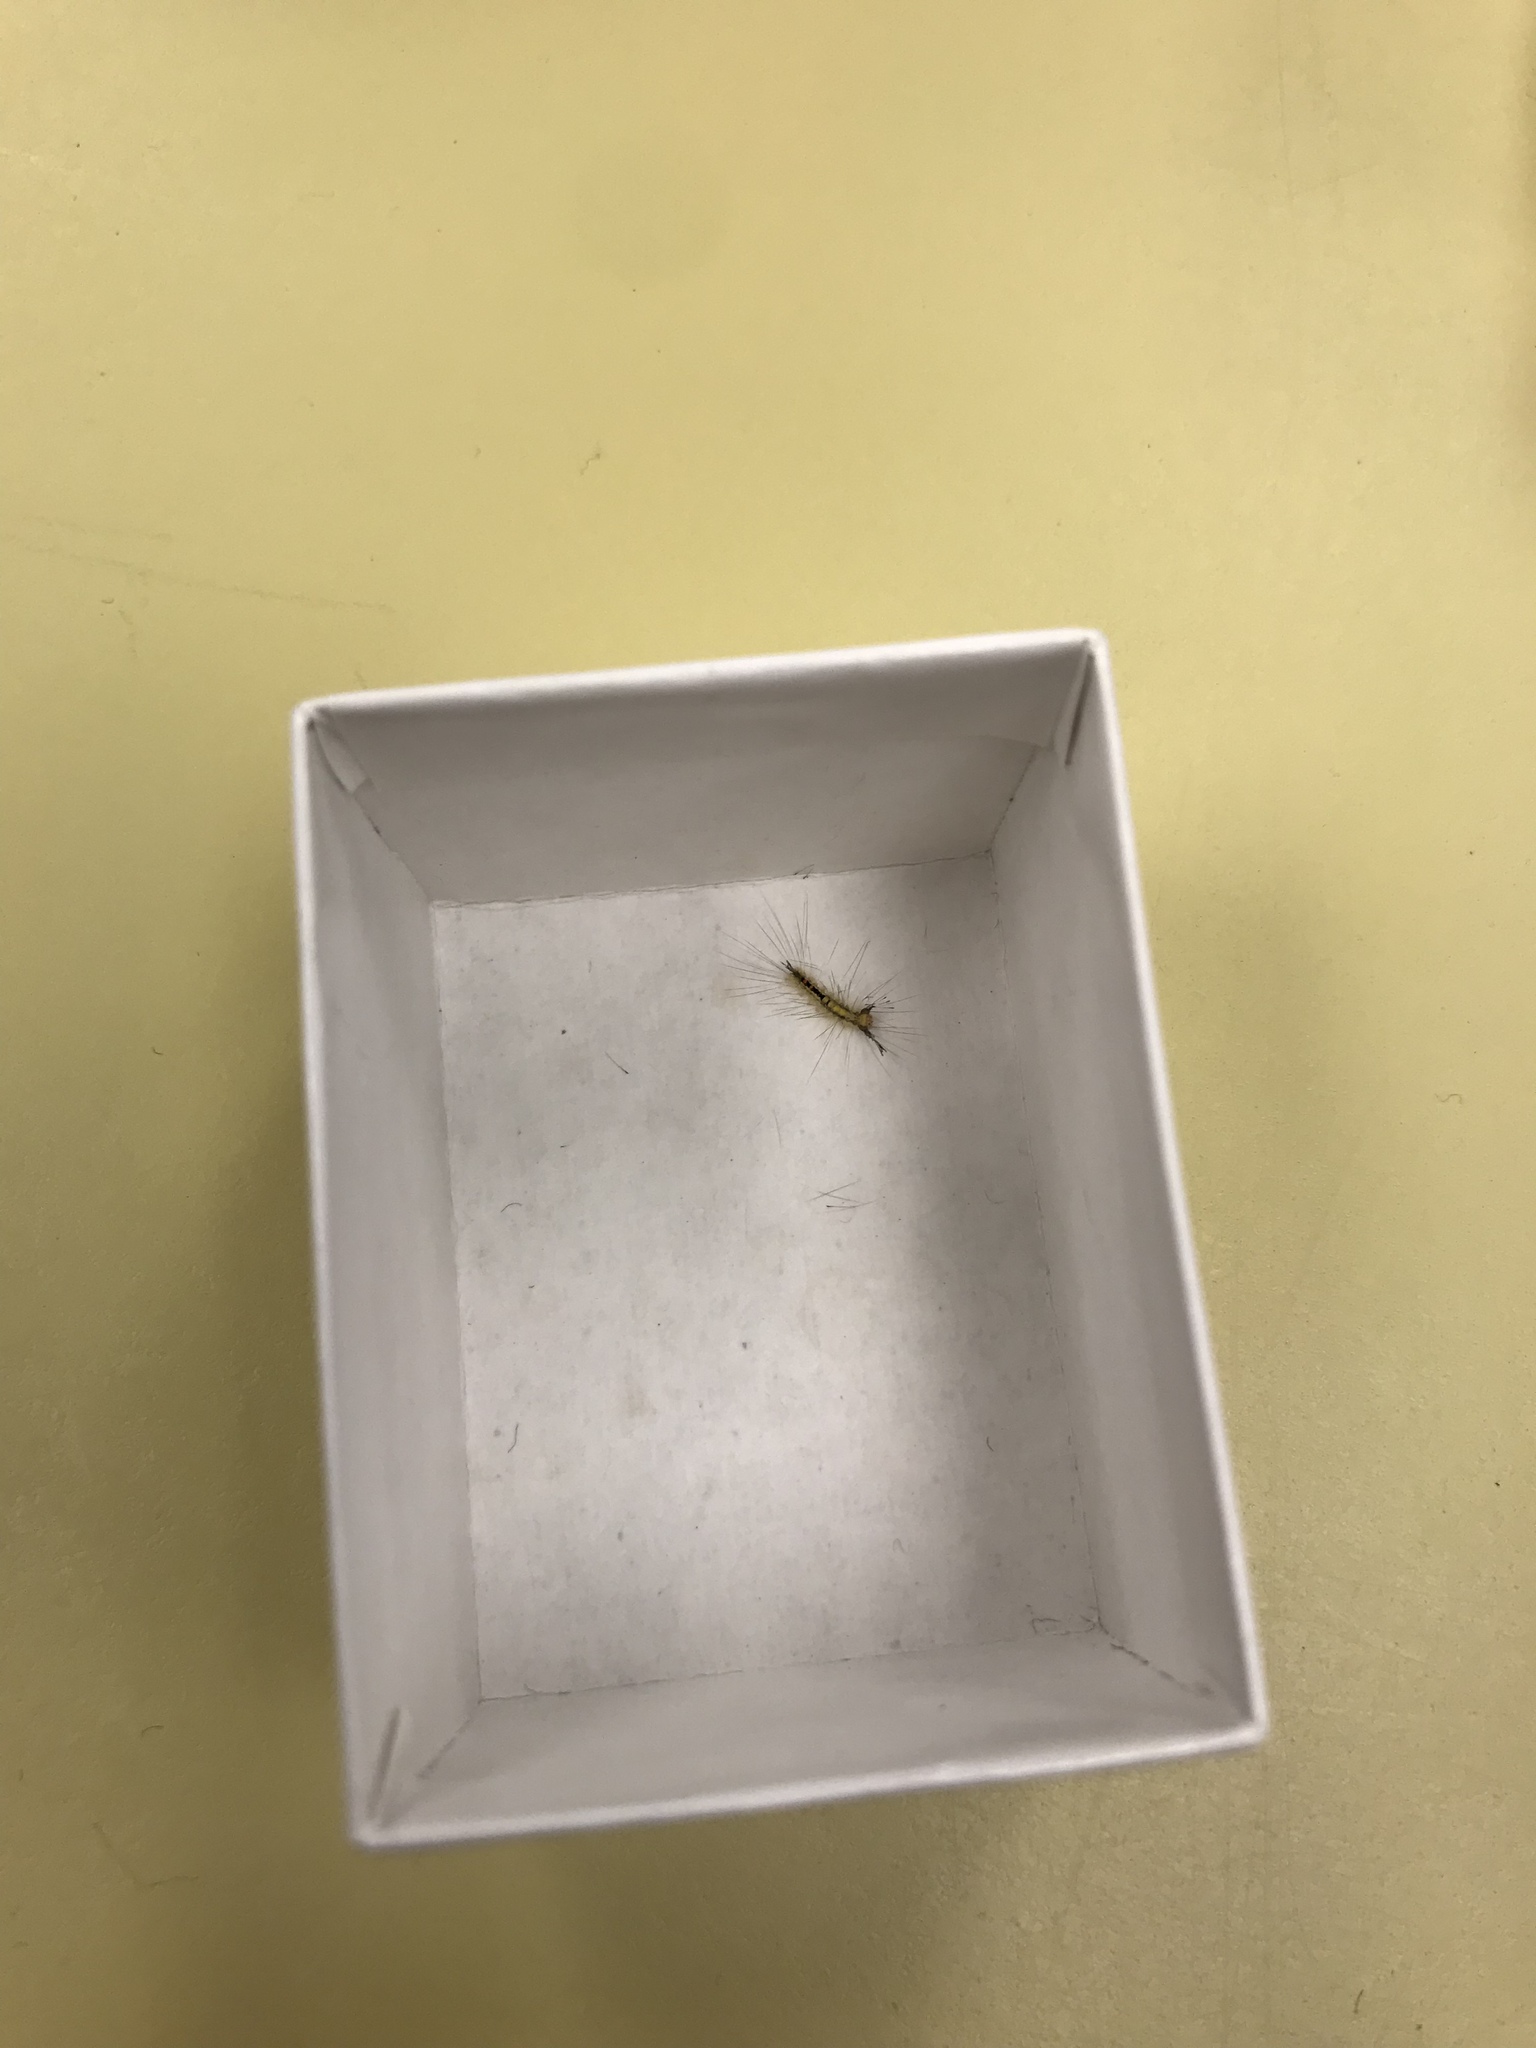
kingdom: Animalia
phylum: Arthropoda
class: Insecta
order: Lepidoptera
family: Erebidae
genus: Orgyia
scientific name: Orgyia leucostigma
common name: White-marked tussock moth
